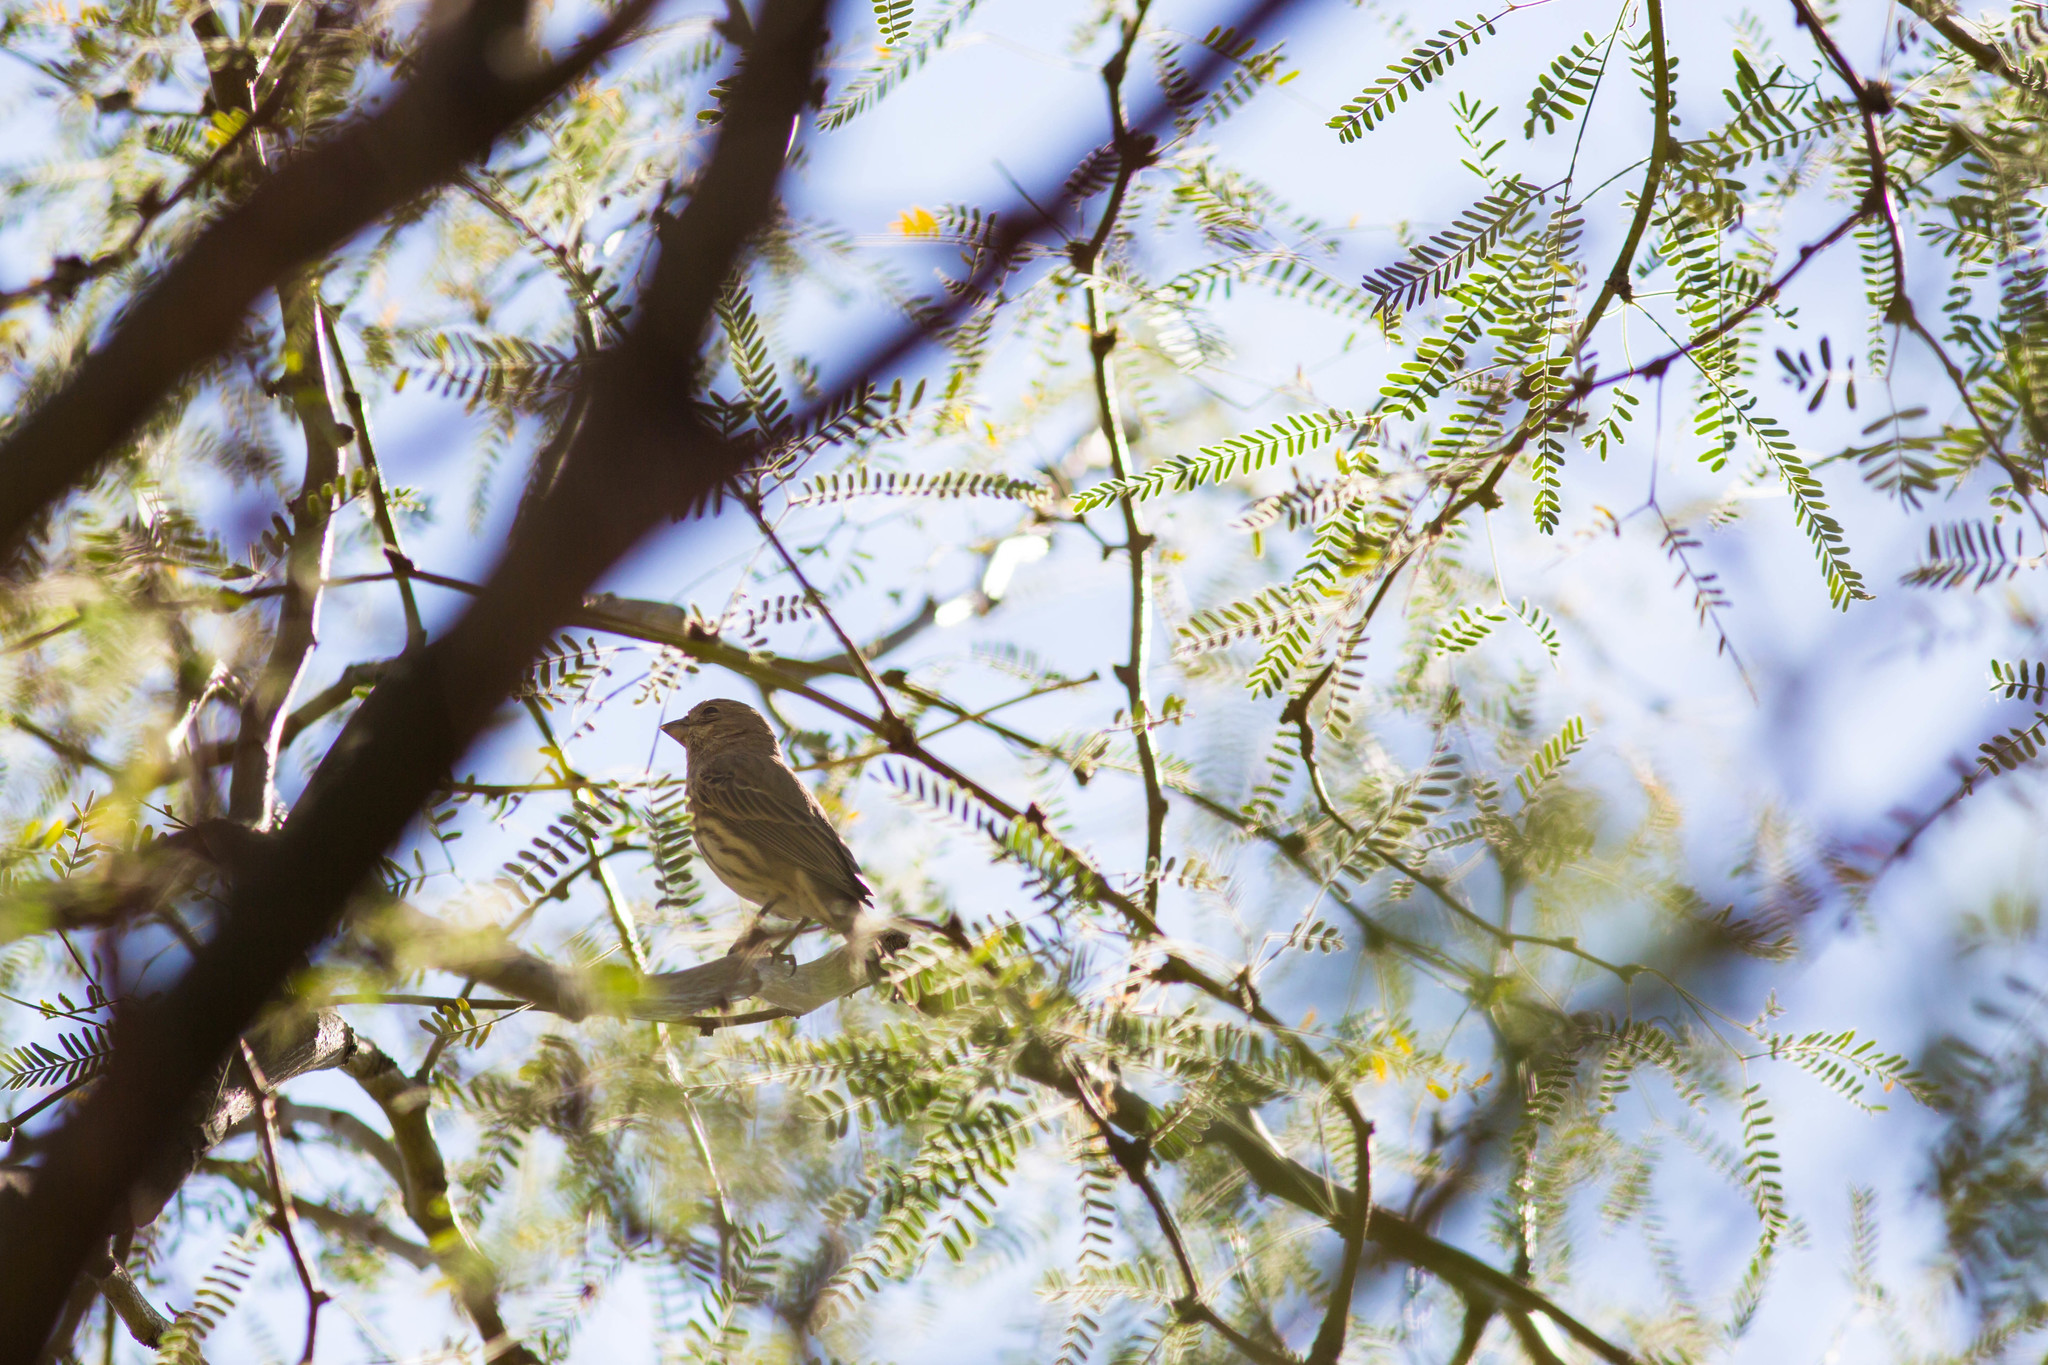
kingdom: Animalia
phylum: Chordata
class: Aves
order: Passeriformes
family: Fringillidae
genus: Haemorhous
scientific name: Haemorhous mexicanus
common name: House finch
